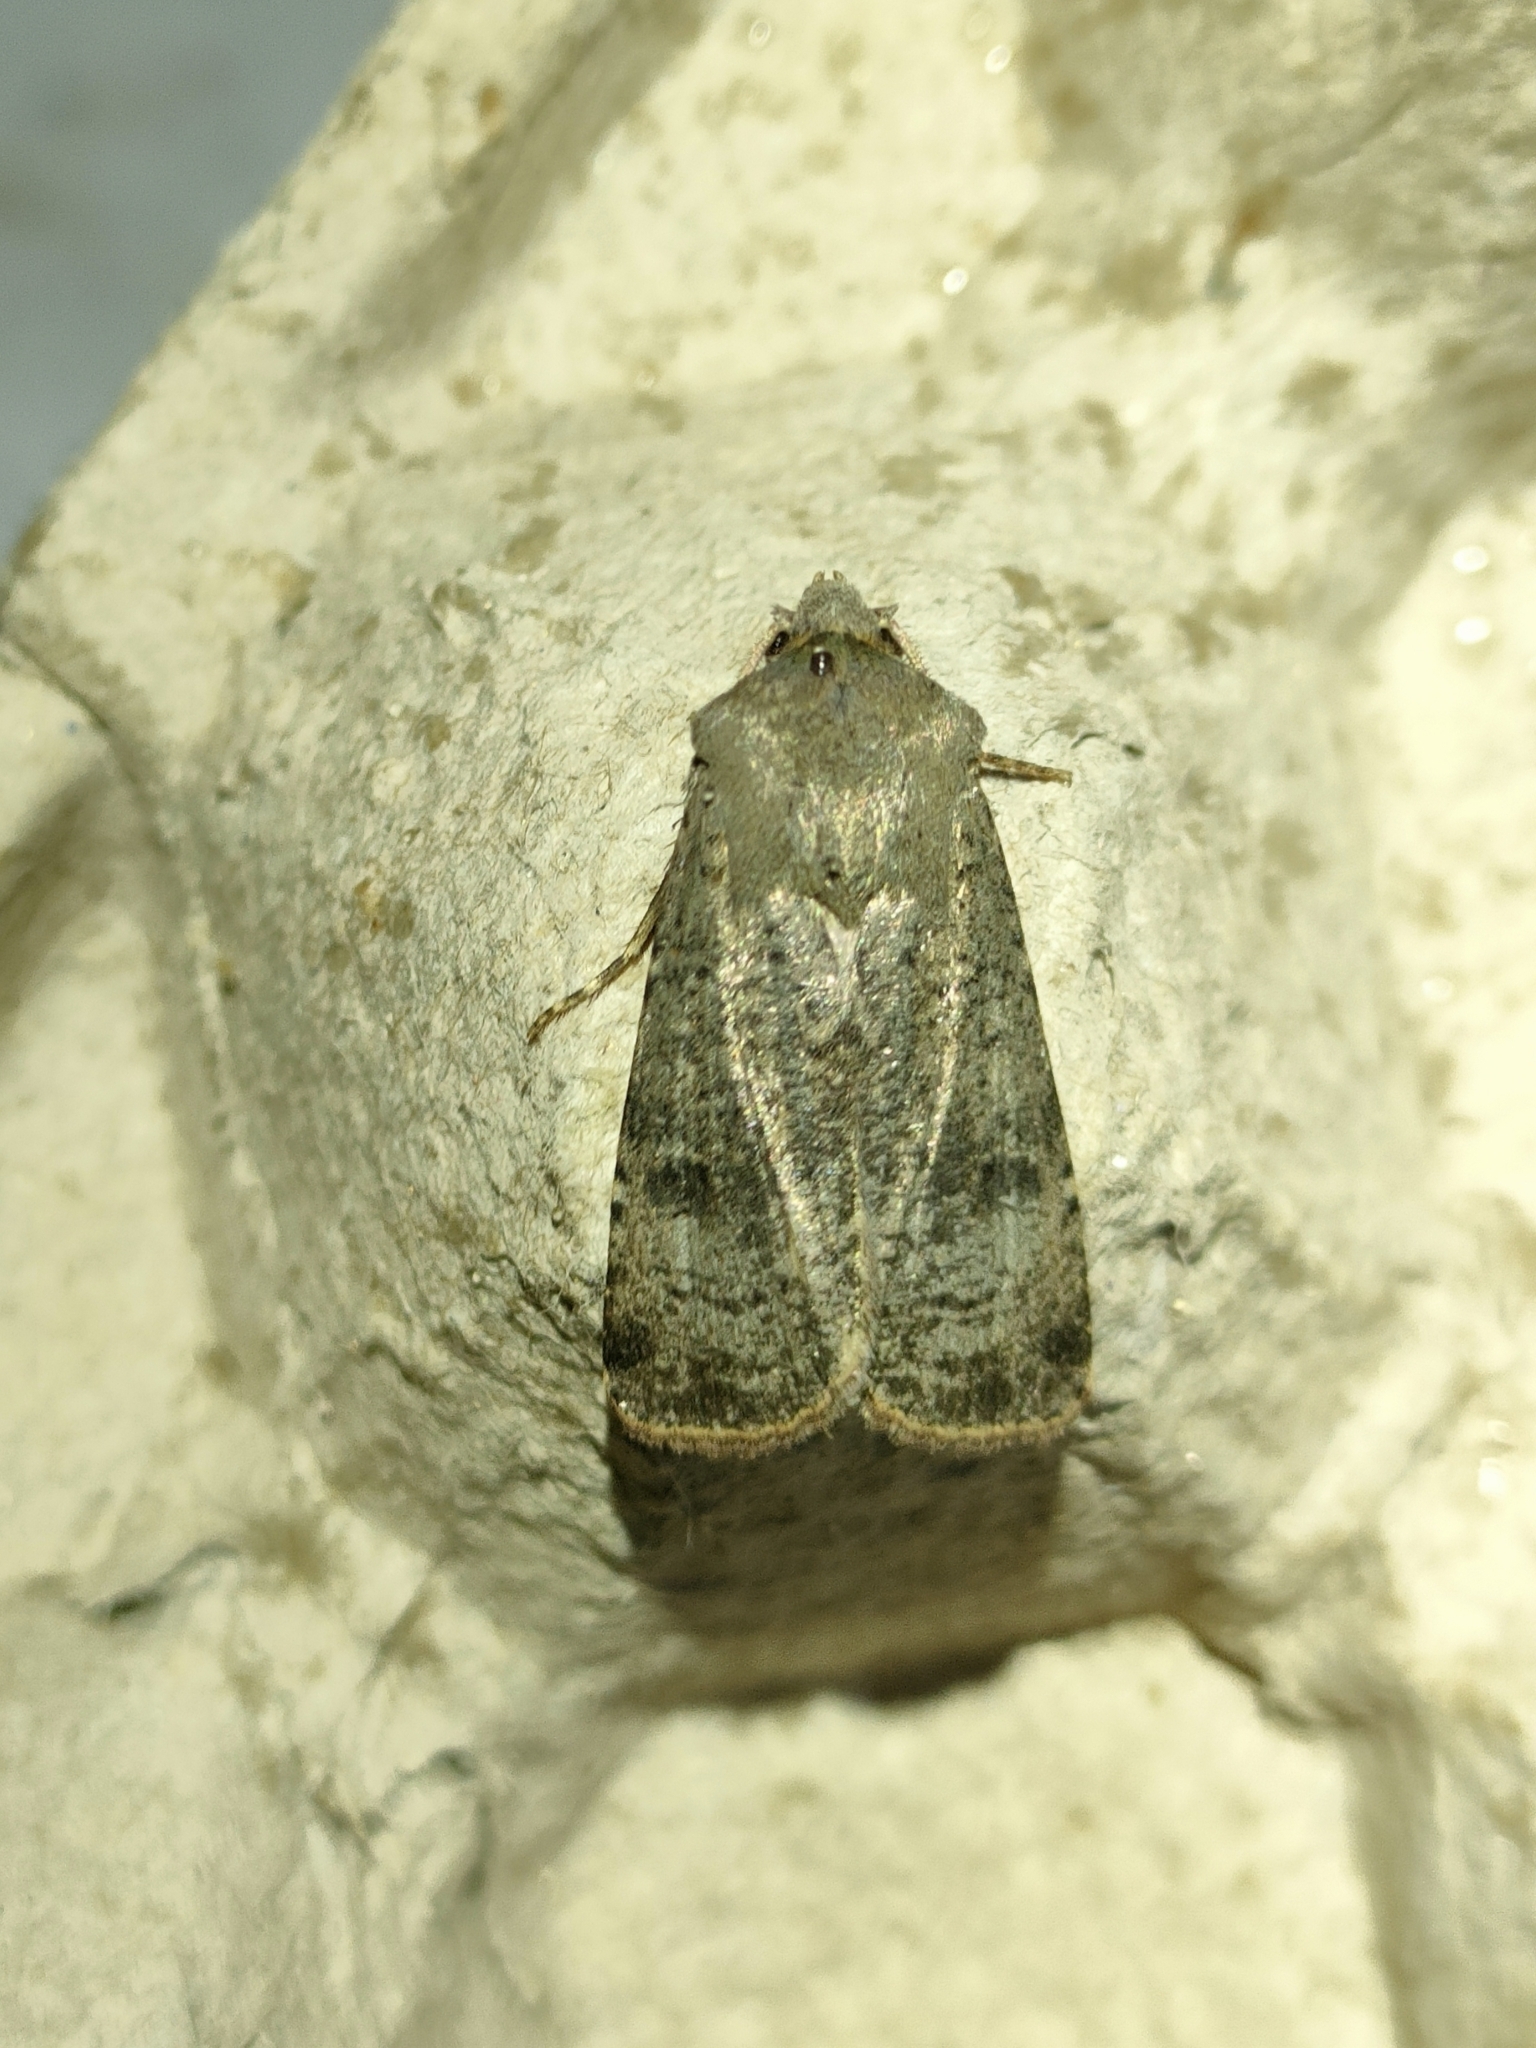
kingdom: Animalia
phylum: Arthropoda
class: Insecta
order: Lepidoptera
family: Noctuidae
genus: Agrotis
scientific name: Agrotis trux
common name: Crescent dart
